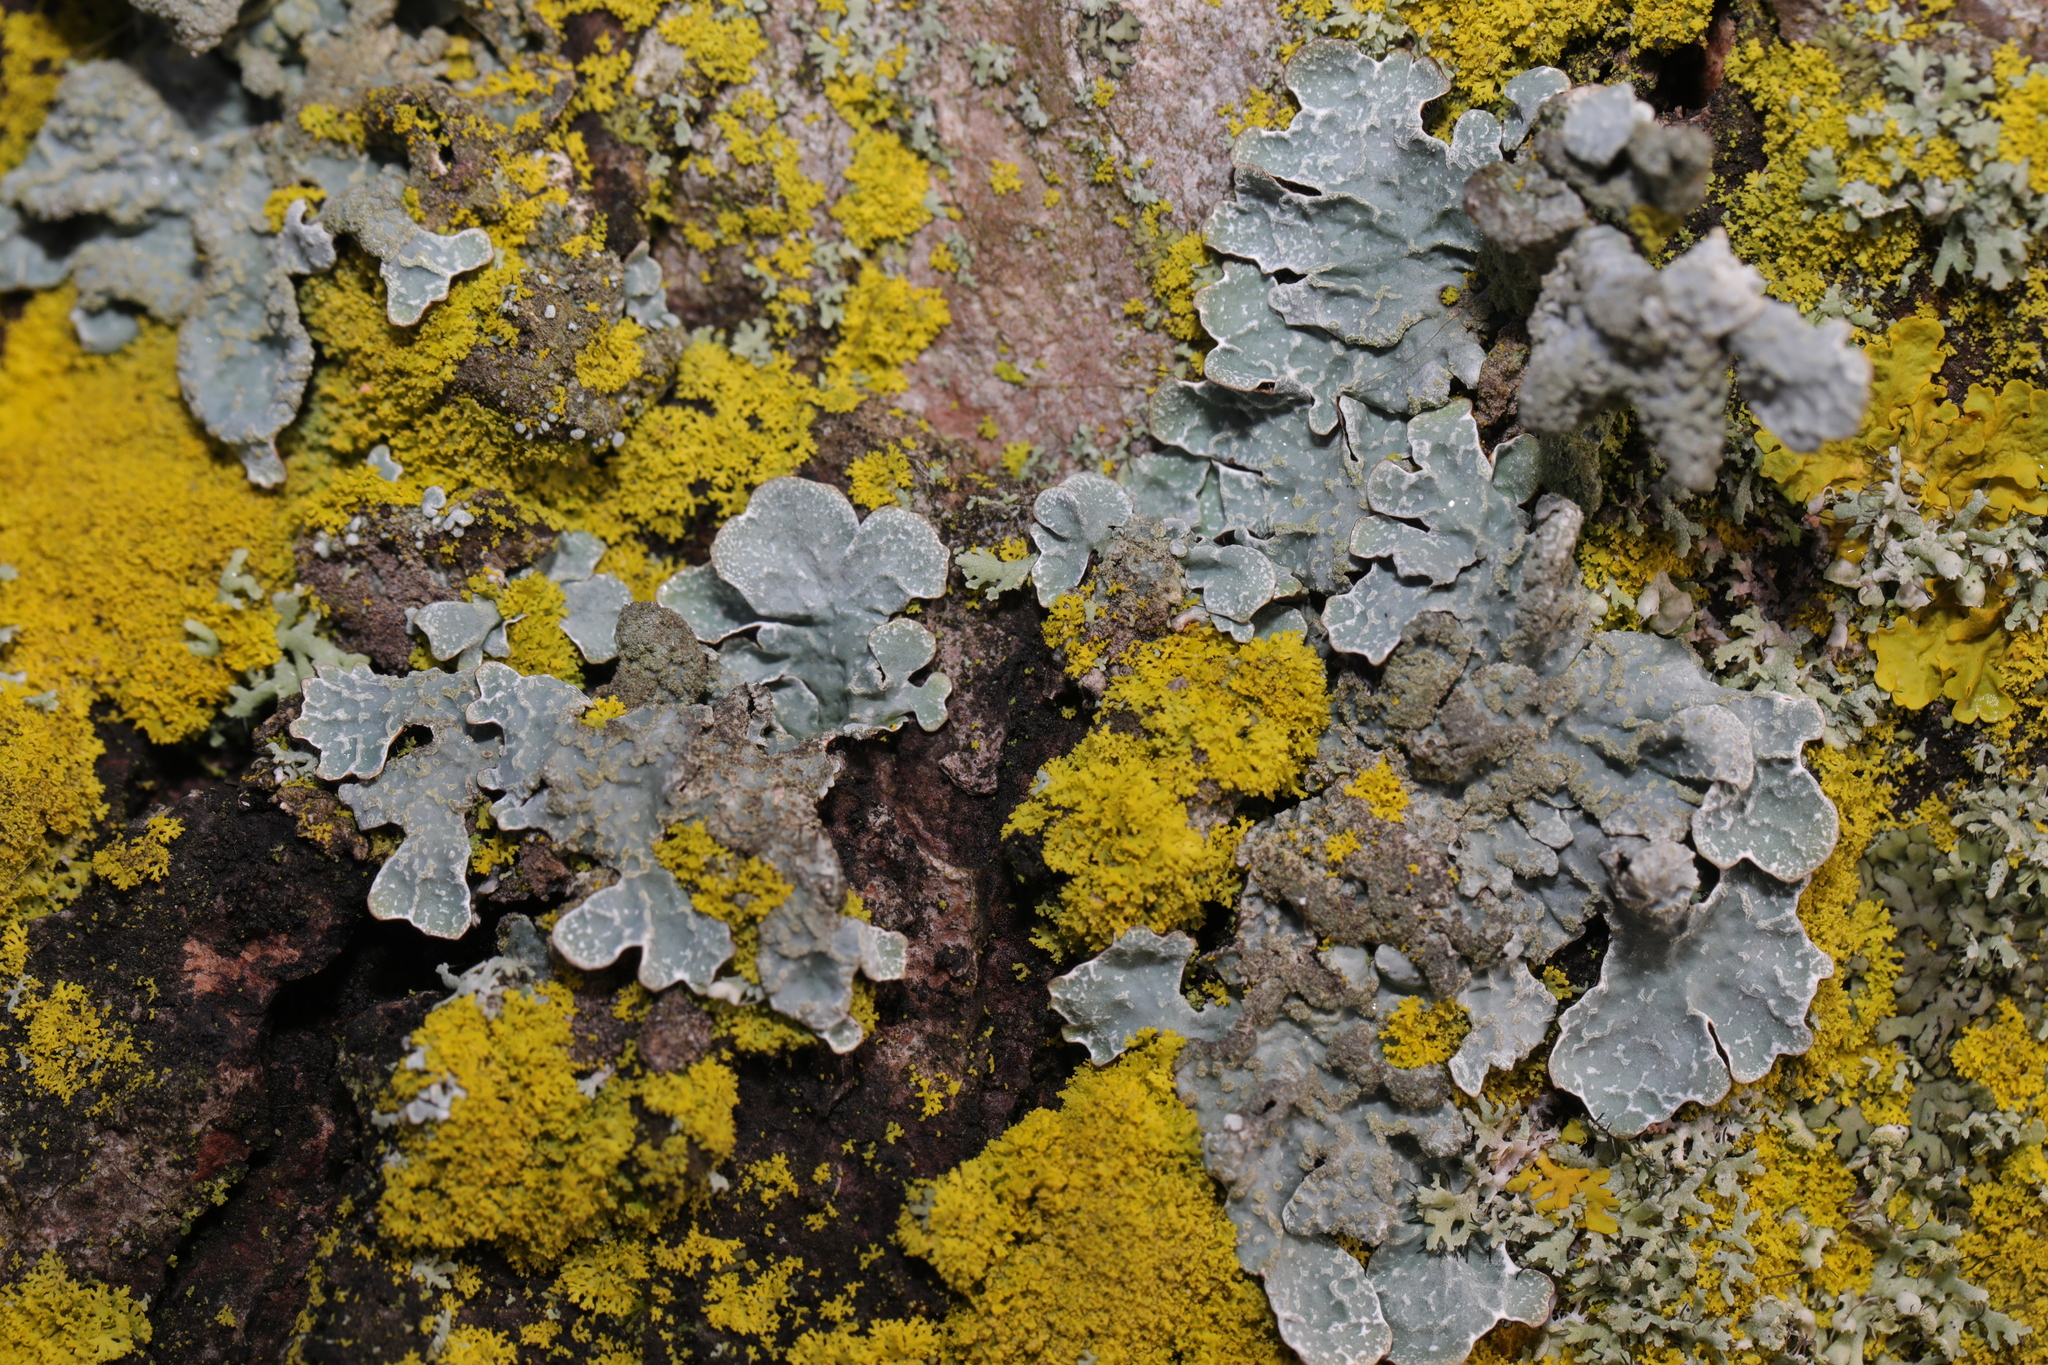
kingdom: Fungi
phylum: Ascomycota
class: Lecanoromycetes
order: Lecanorales
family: Parmeliaceae
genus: Parmelia
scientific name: Parmelia sulcata
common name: Netted shield lichen
